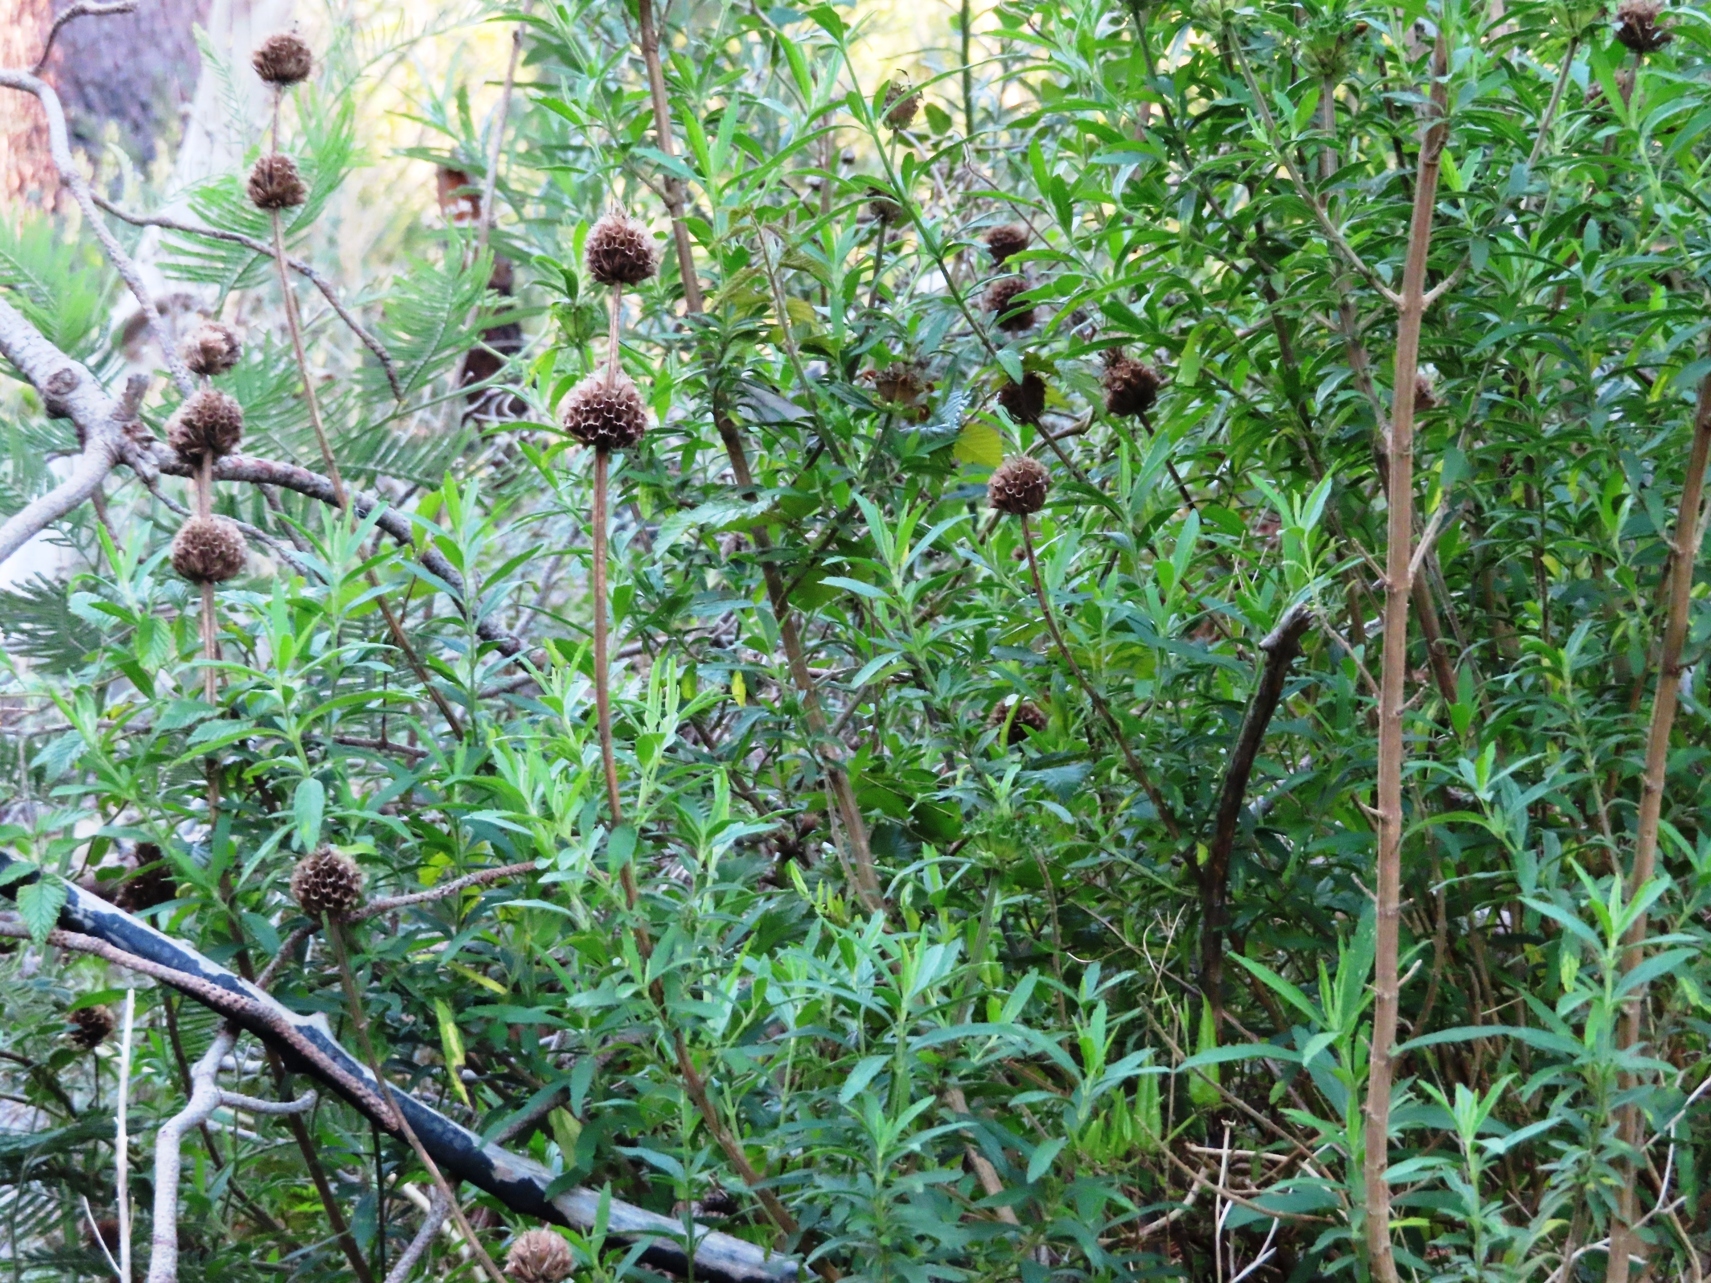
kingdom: Plantae
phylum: Tracheophyta
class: Magnoliopsida
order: Lamiales
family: Lamiaceae
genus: Leonotis
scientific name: Leonotis leonurus
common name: Lion's ear
